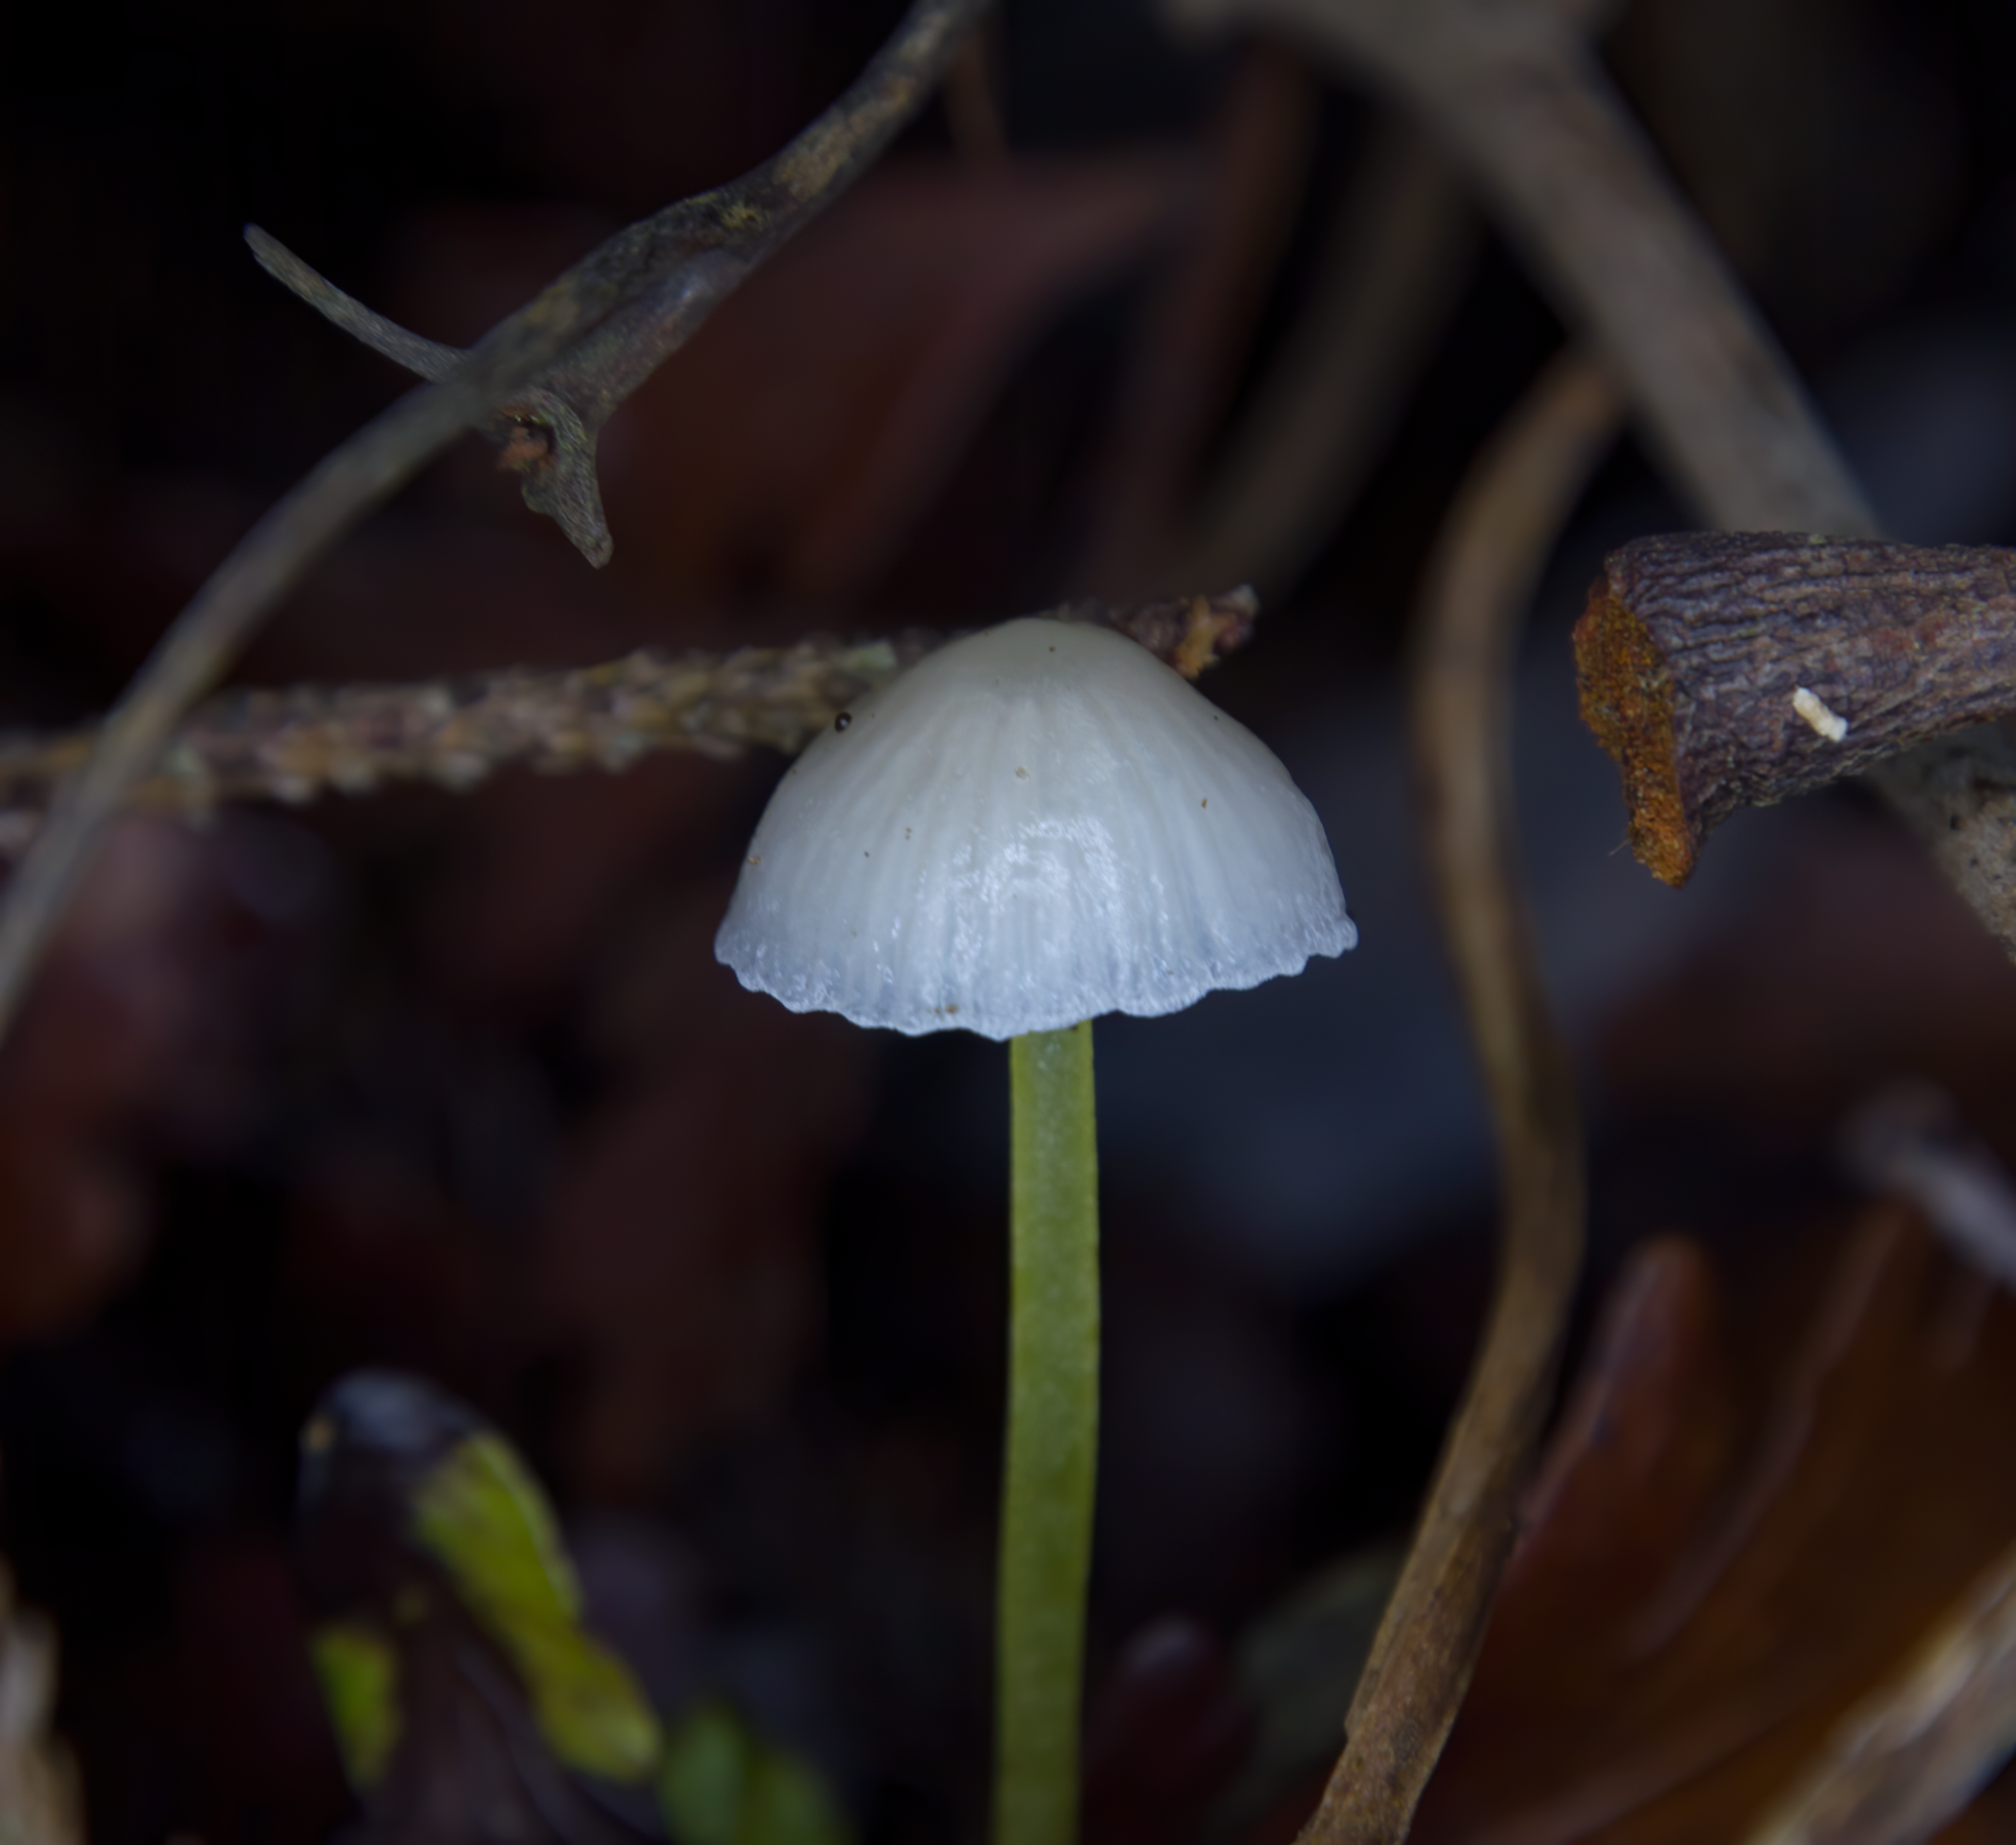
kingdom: Fungi
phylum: Basidiomycota
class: Agaricomycetes
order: Agaricales
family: Mycenaceae
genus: Mycena
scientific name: Mycena subviscosa
